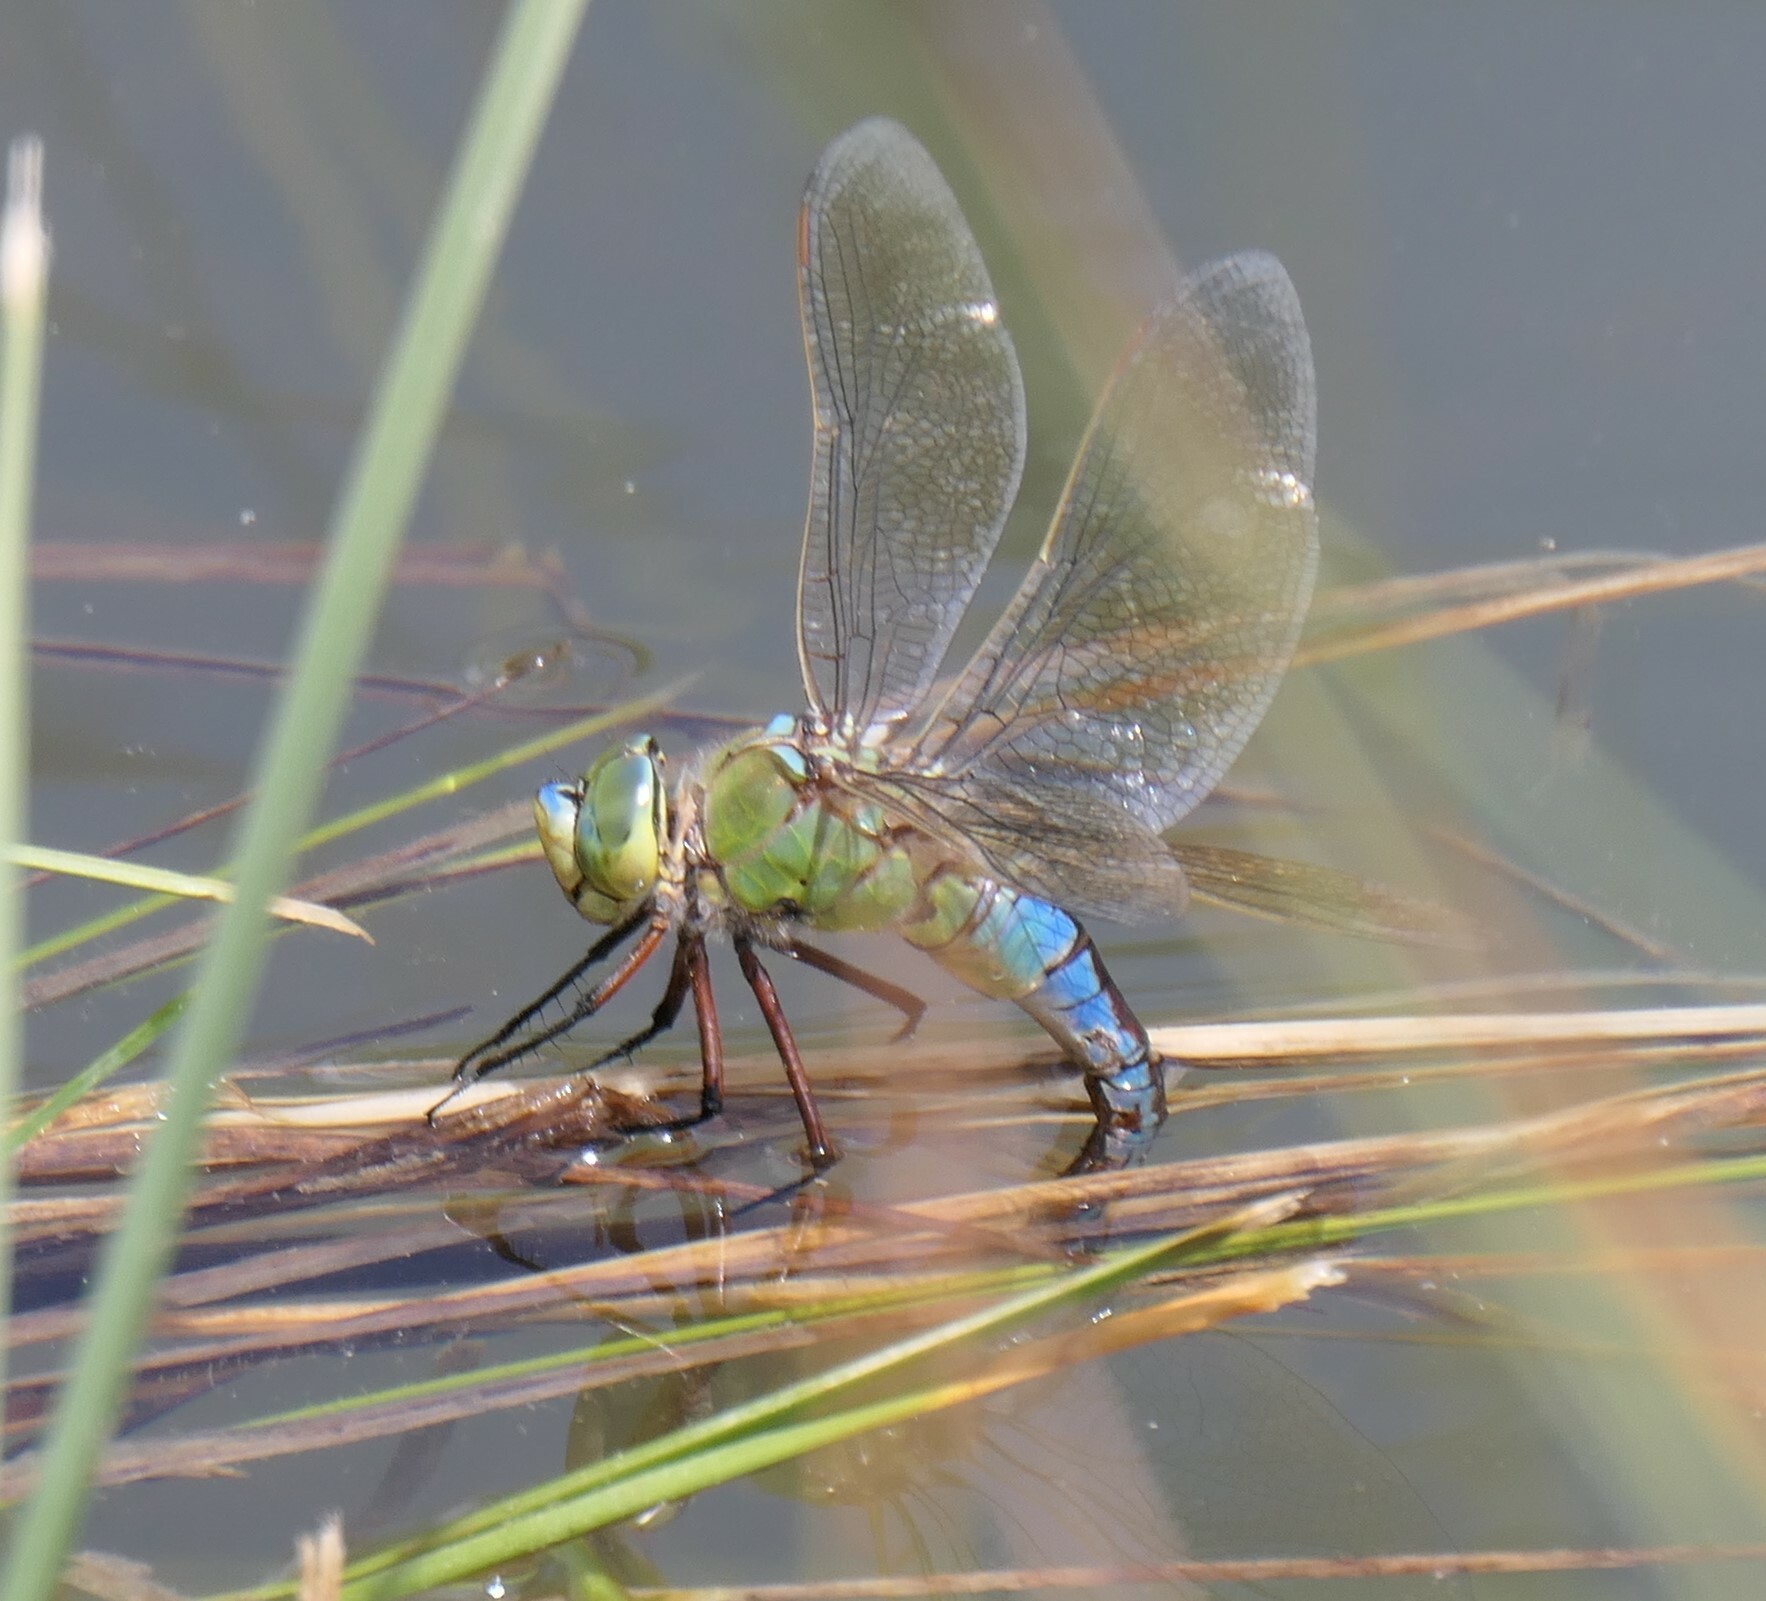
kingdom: Animalia
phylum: Arthropoda
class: Insecta
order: Odonata
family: Aeshnidae
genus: Anax
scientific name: Anax imperator
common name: Emperor dragonfly
